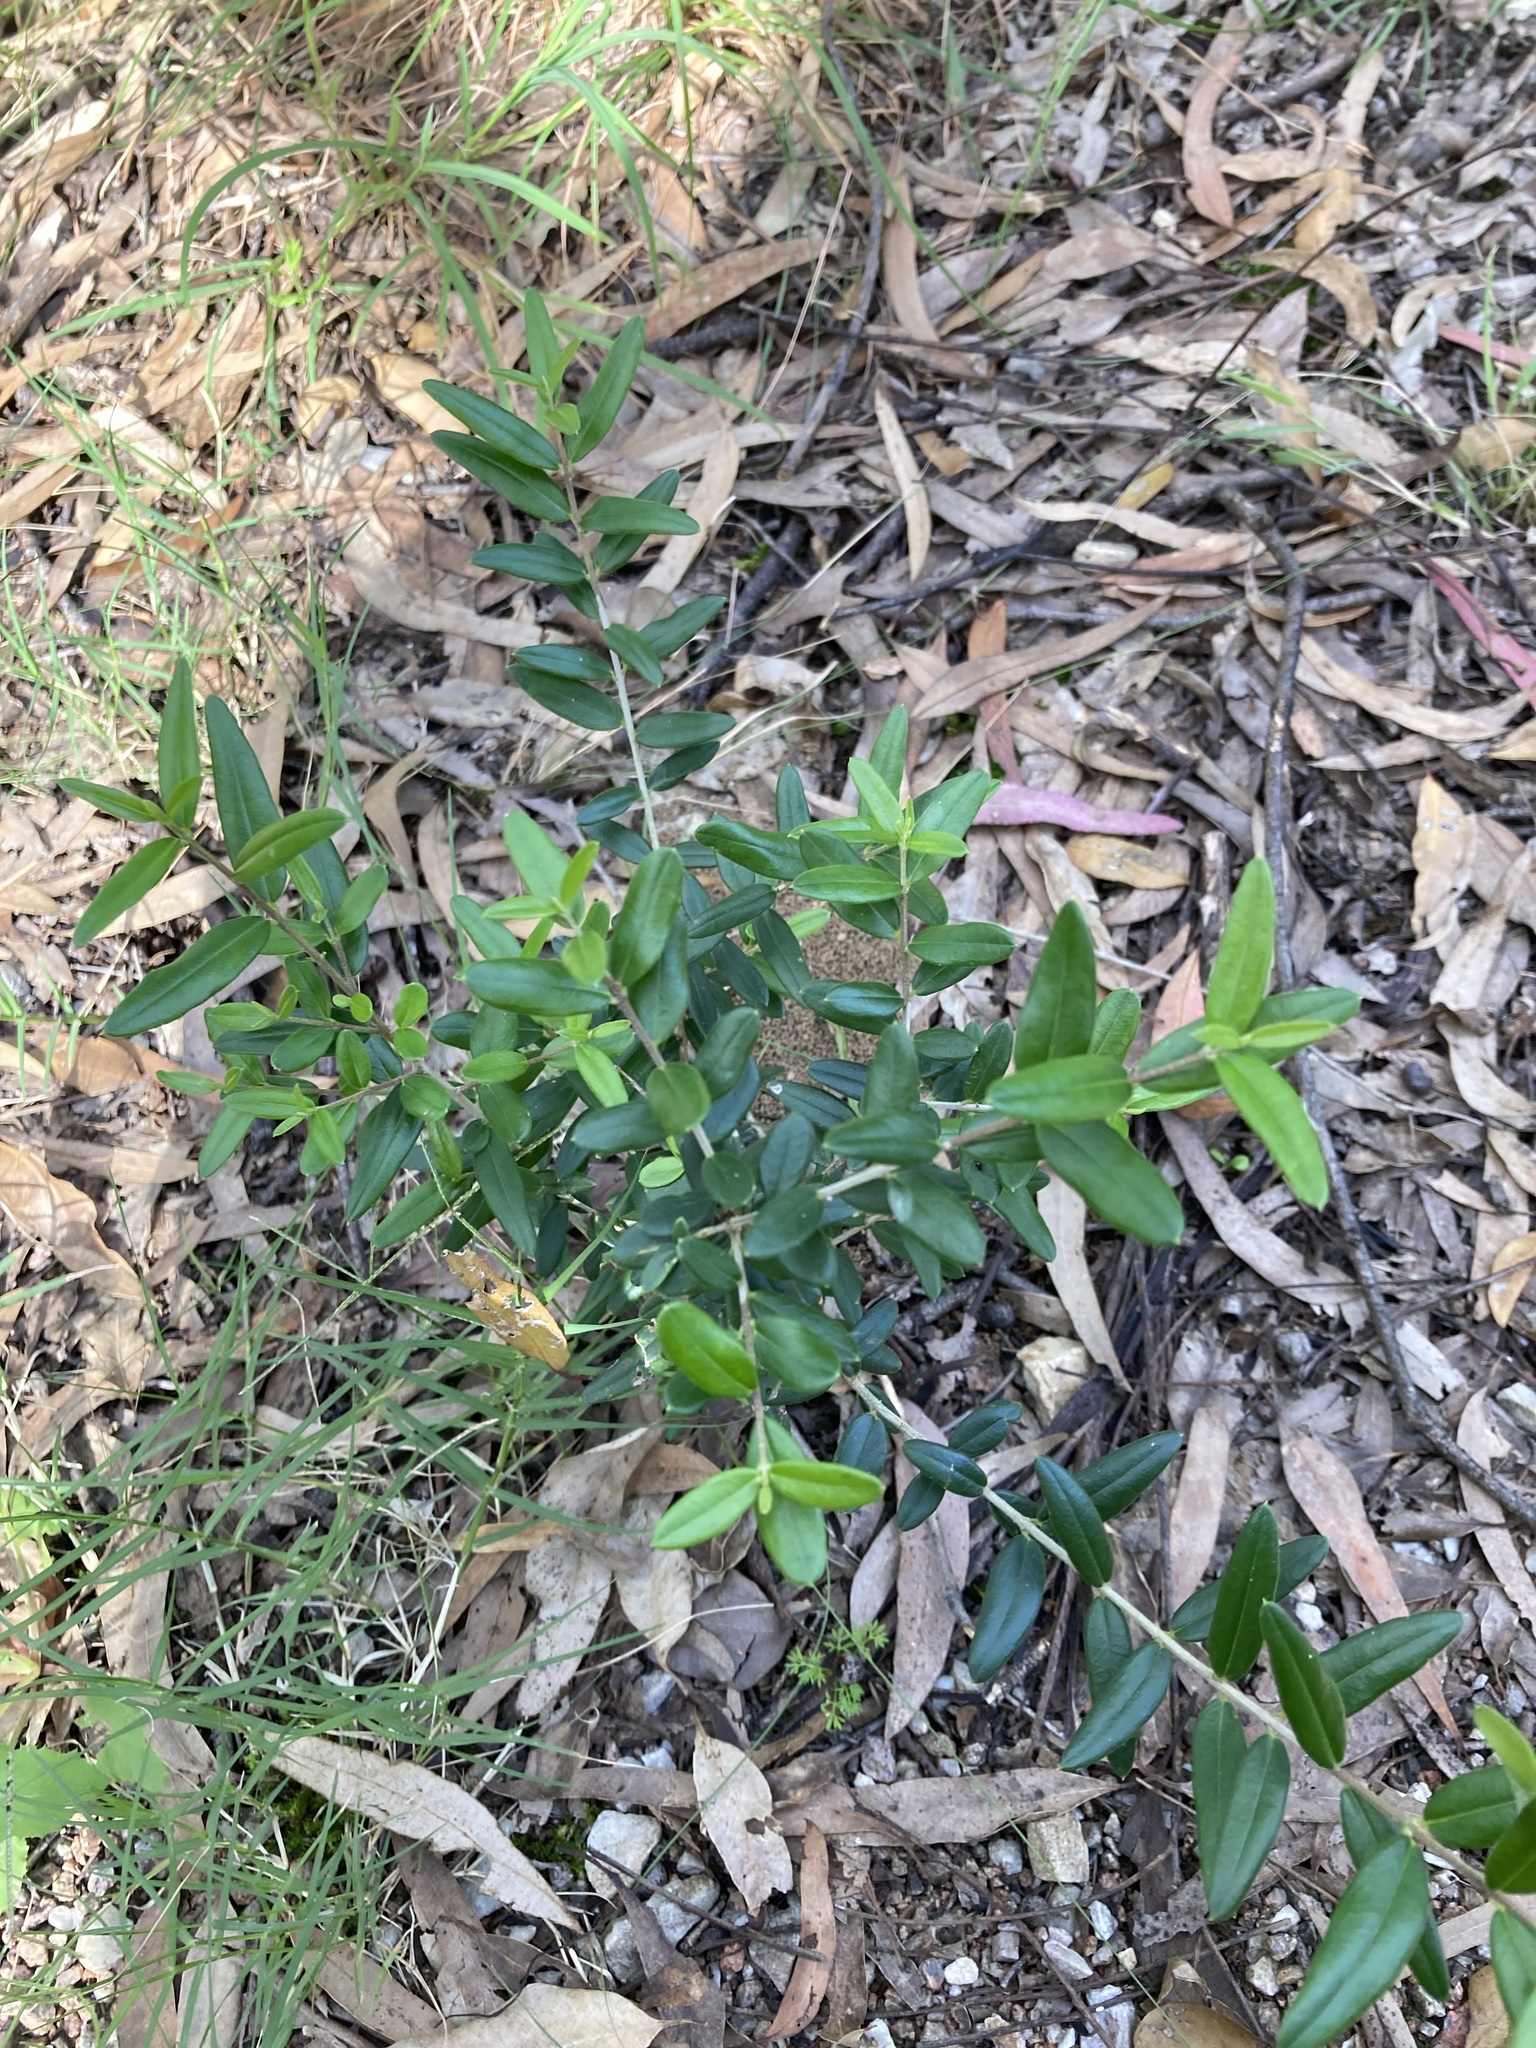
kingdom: Plantae
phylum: Tracheophyta
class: Magnoliopsida
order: Lamiales
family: Oleaceae
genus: Olea
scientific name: Olea europaea
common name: Olive
